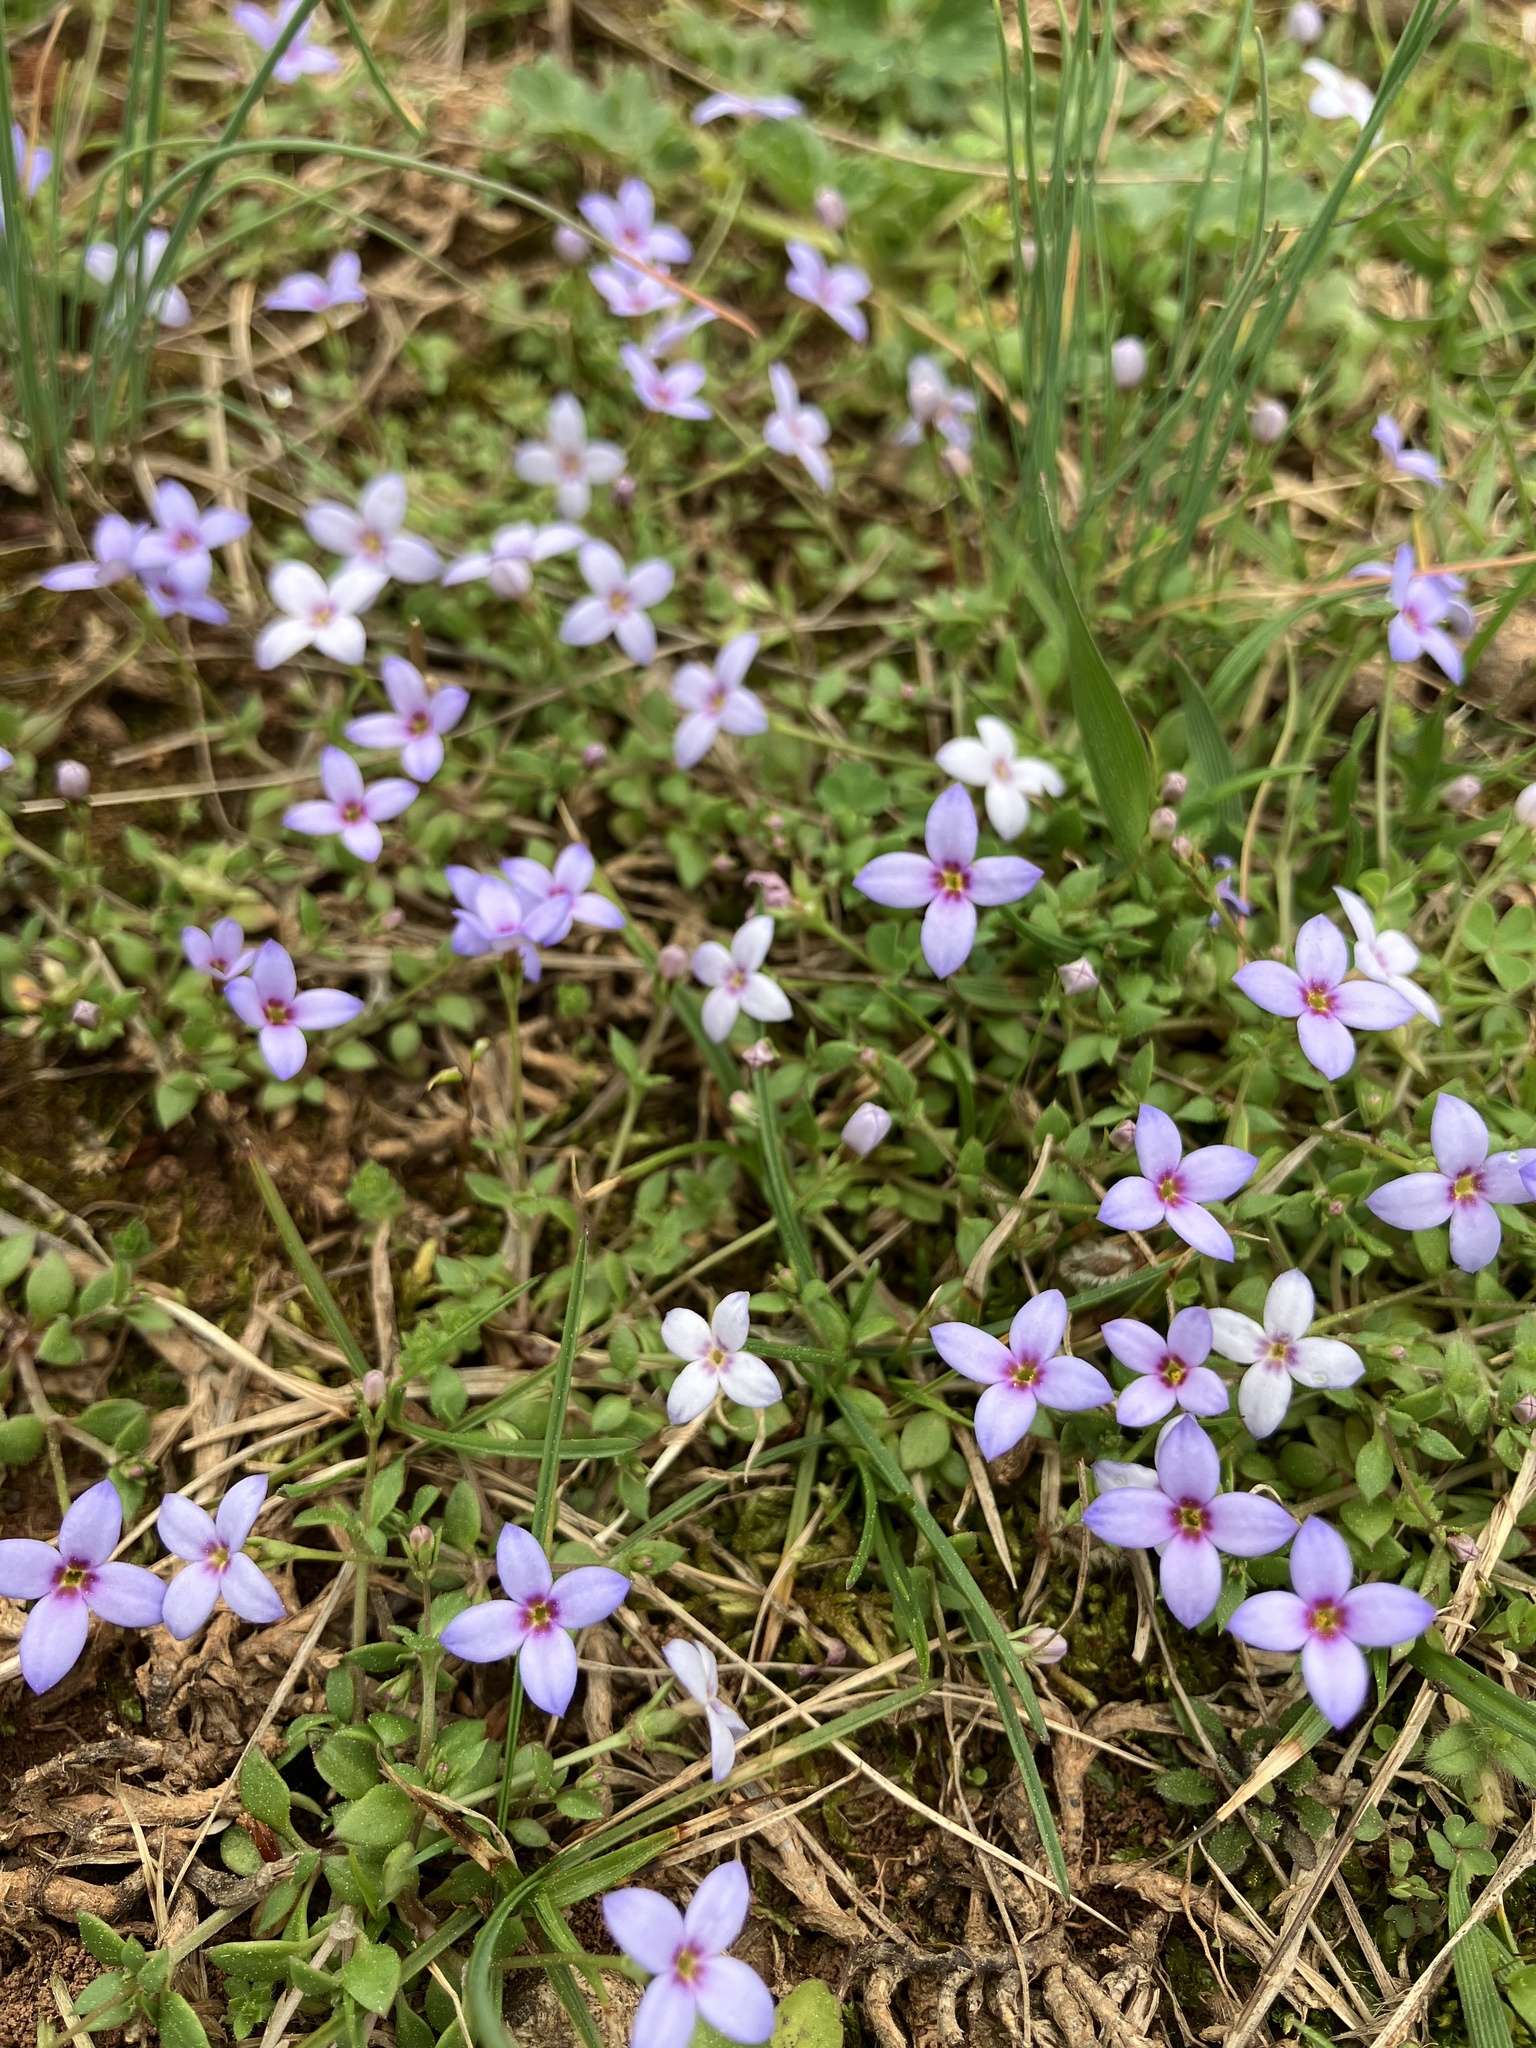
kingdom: Plantae
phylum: Tracheophyta
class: Magnoliopsida
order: Gentianales
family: Rubiaceae
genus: Houstonia
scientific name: Houstonia pusilla
